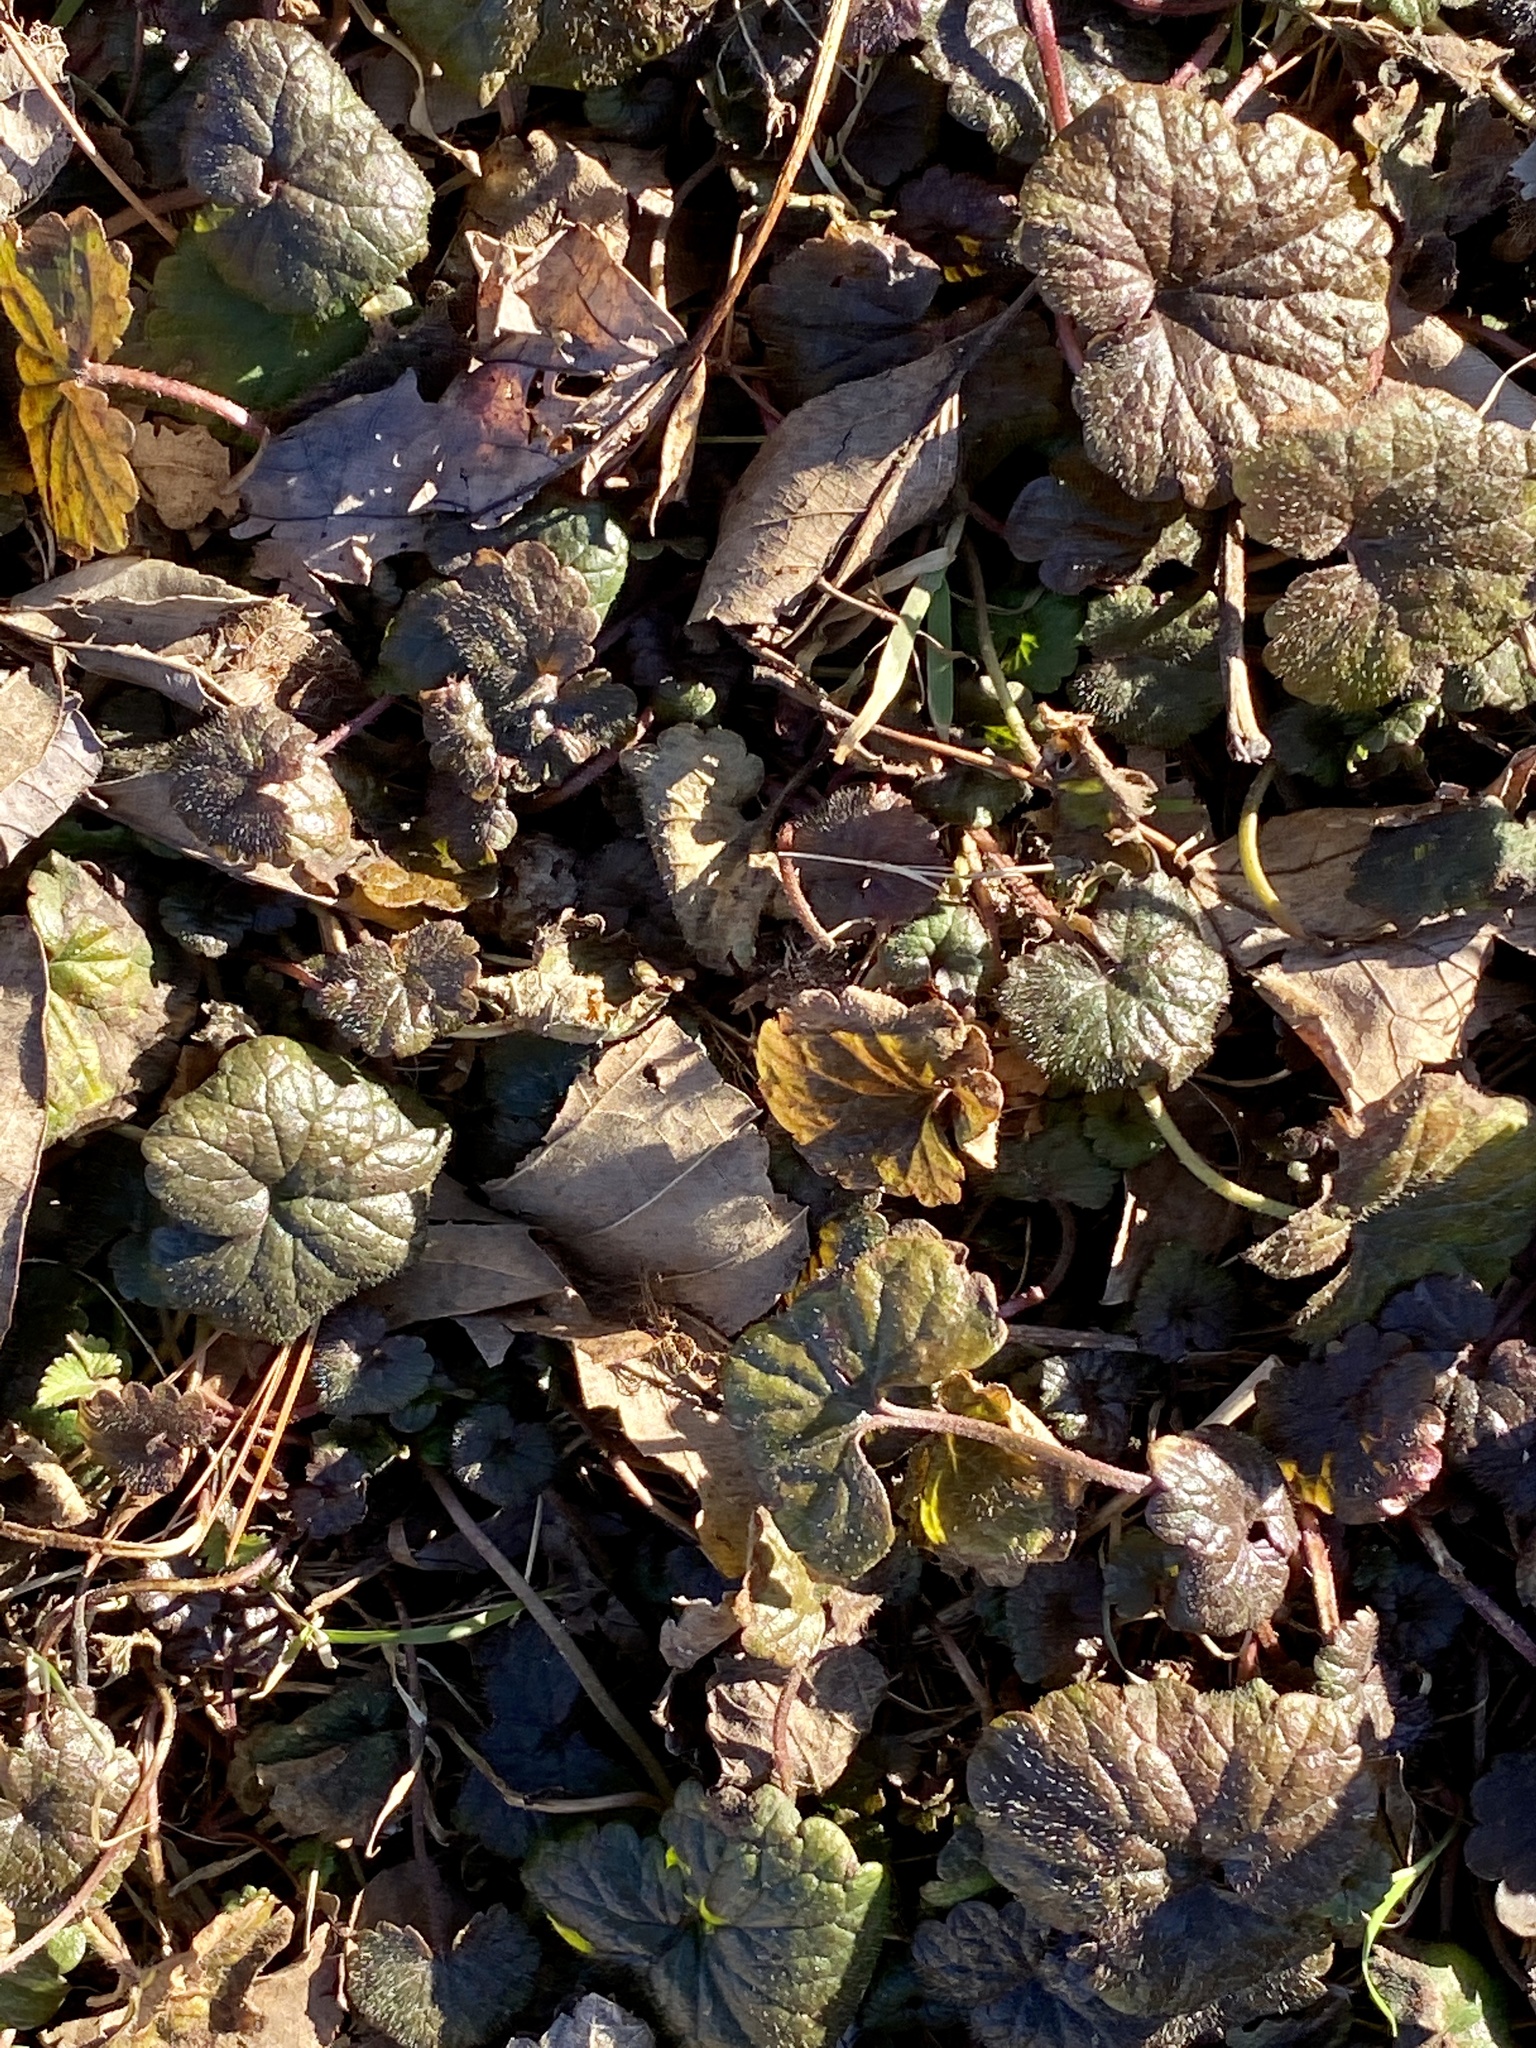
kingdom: Plantae
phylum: Tracheophyta
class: Magnoliopsida
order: Lamiales
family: Lamiaceae
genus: Glechoma
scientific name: Glechoma hederacea
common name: Ground ivy
